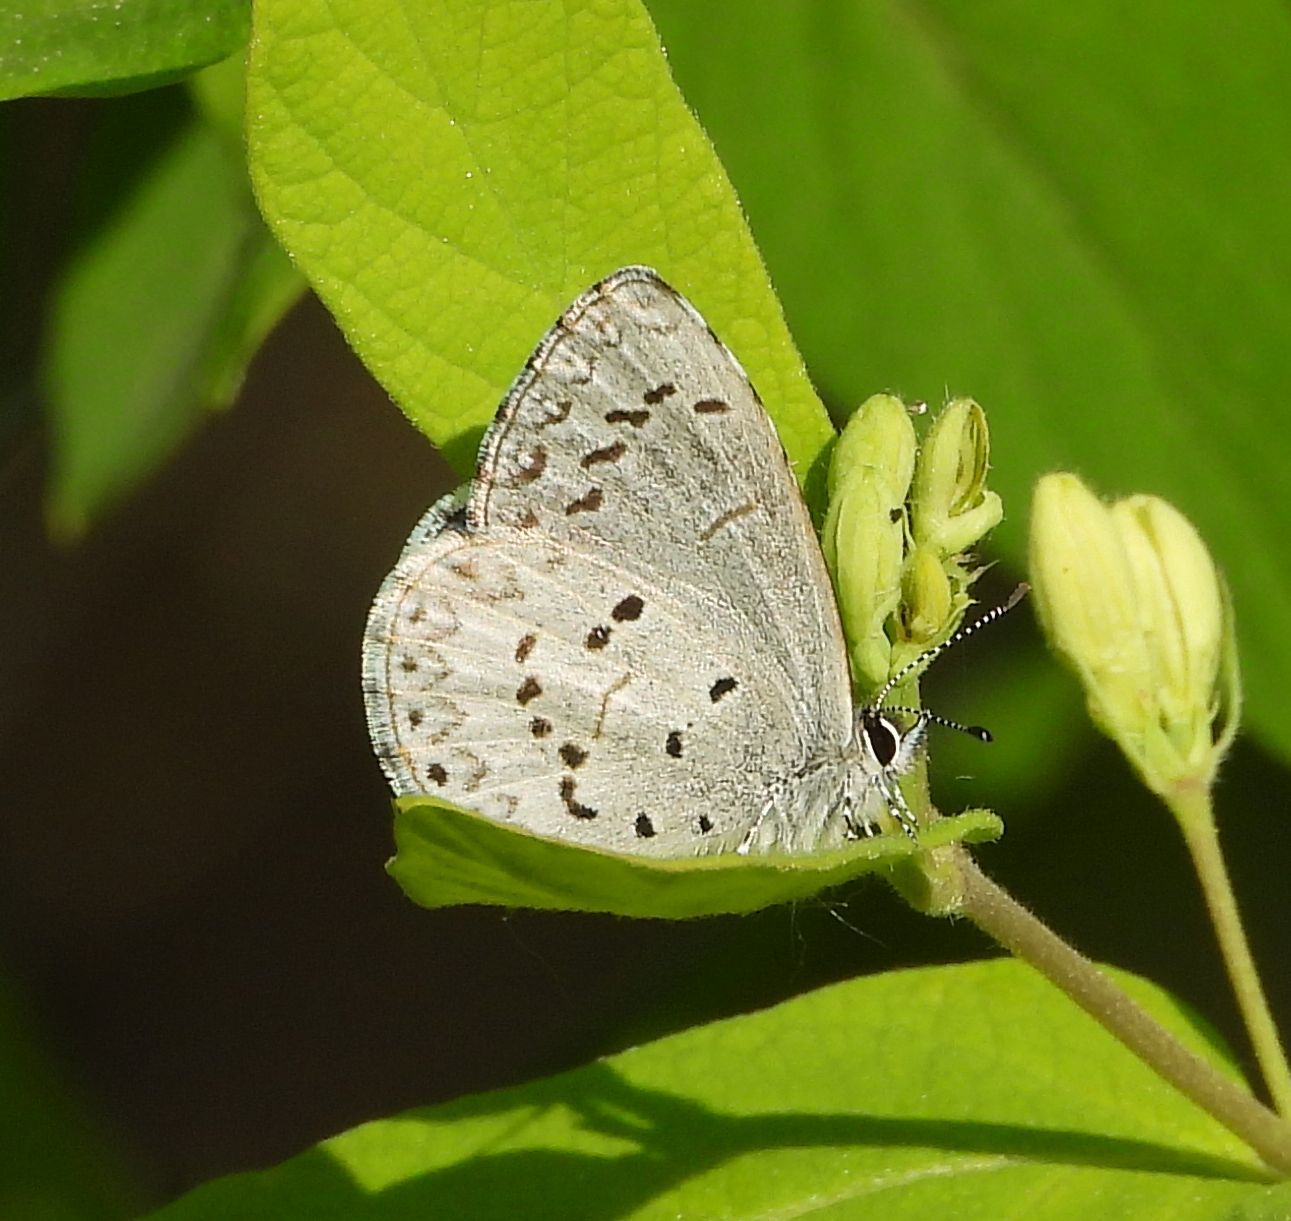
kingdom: Animalia
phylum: Arthropoda
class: Insecta
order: Lepidoptera
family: Lycaenidae
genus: Celastrina
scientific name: Celastrina lucia
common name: Lucia azure
